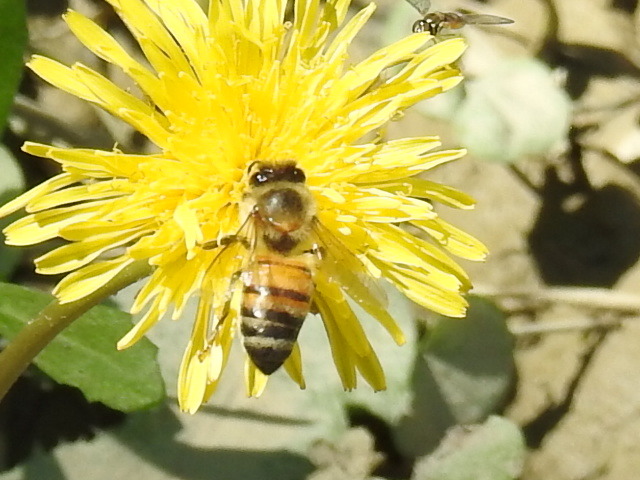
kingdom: Animalia
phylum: Arthropoda
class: Insecta
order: Hymenoptera
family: Apidae
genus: Apis
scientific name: Apis mellifera
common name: Honey bee
